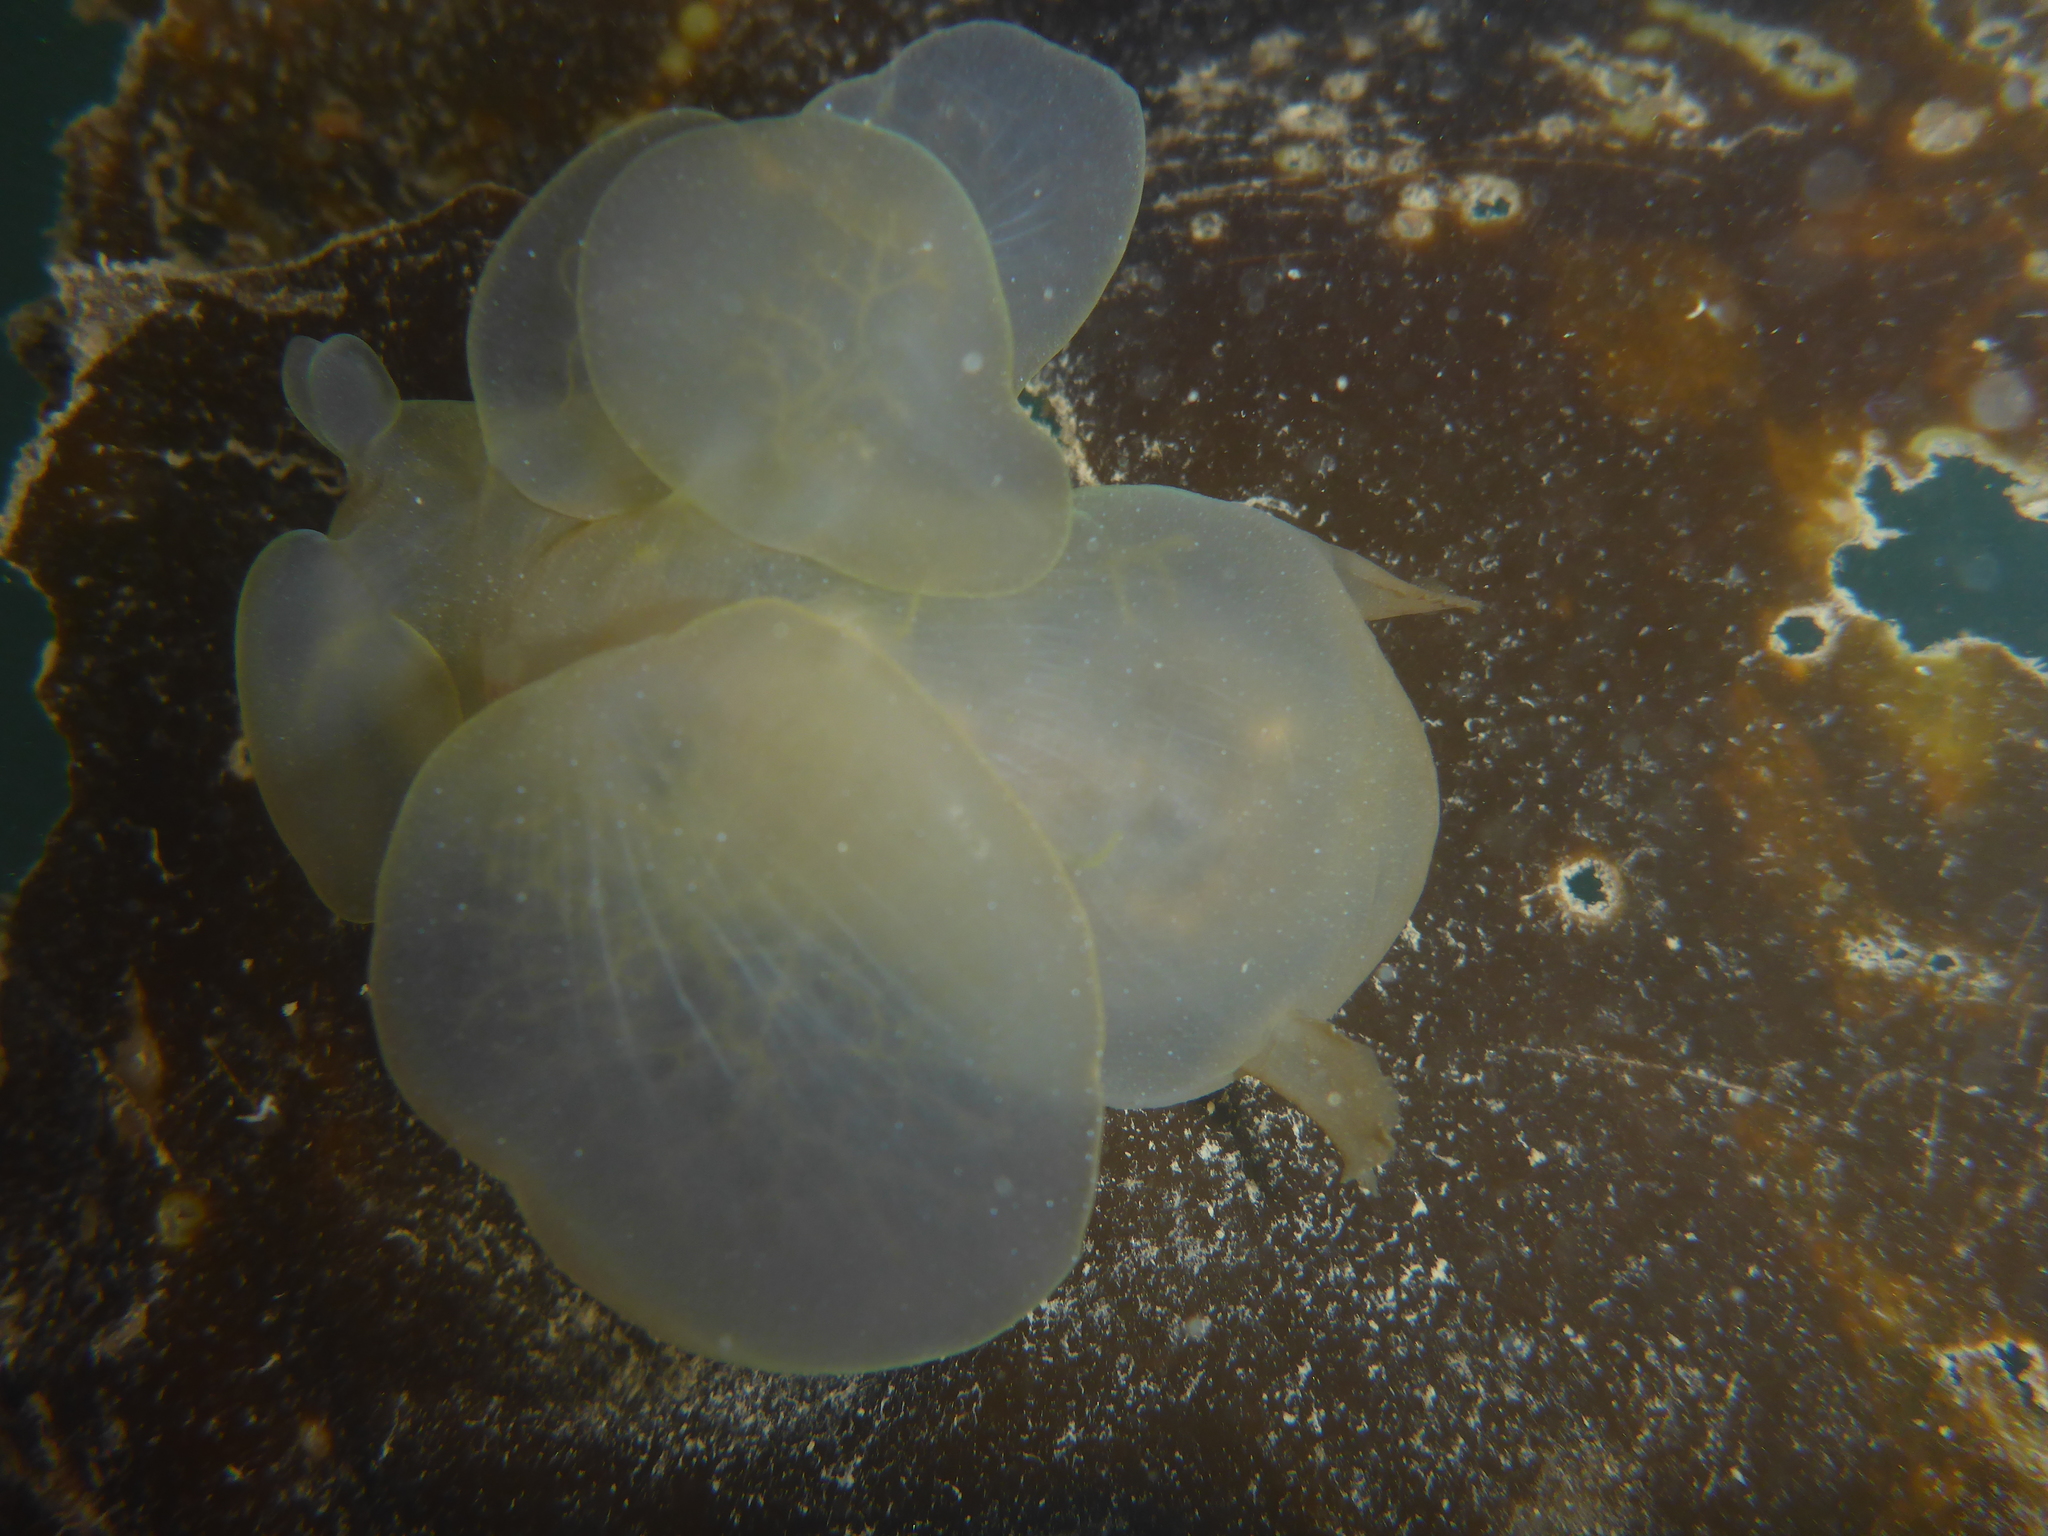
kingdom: Animalia
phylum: Mollusca
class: Gastropoda
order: Nudibranchia
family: Tethydidae
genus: Melibe
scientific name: Melibe leonina
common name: Lion nudibranch
